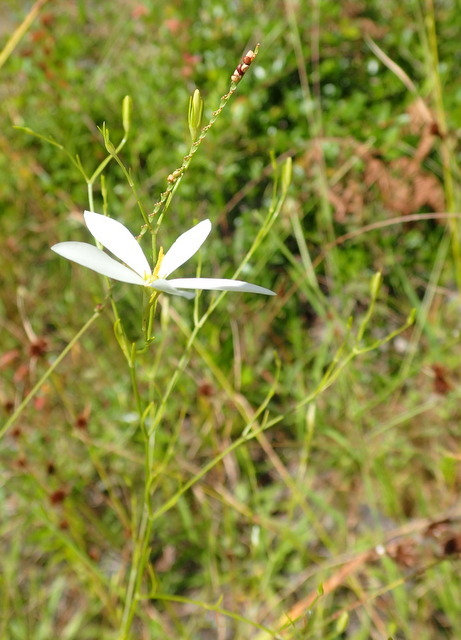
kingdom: Plantae
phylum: Tracheophyta
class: Magnoliopsida
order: Gentianales
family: Gentianaceae
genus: Sabatia
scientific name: Sabatia brevifolia
